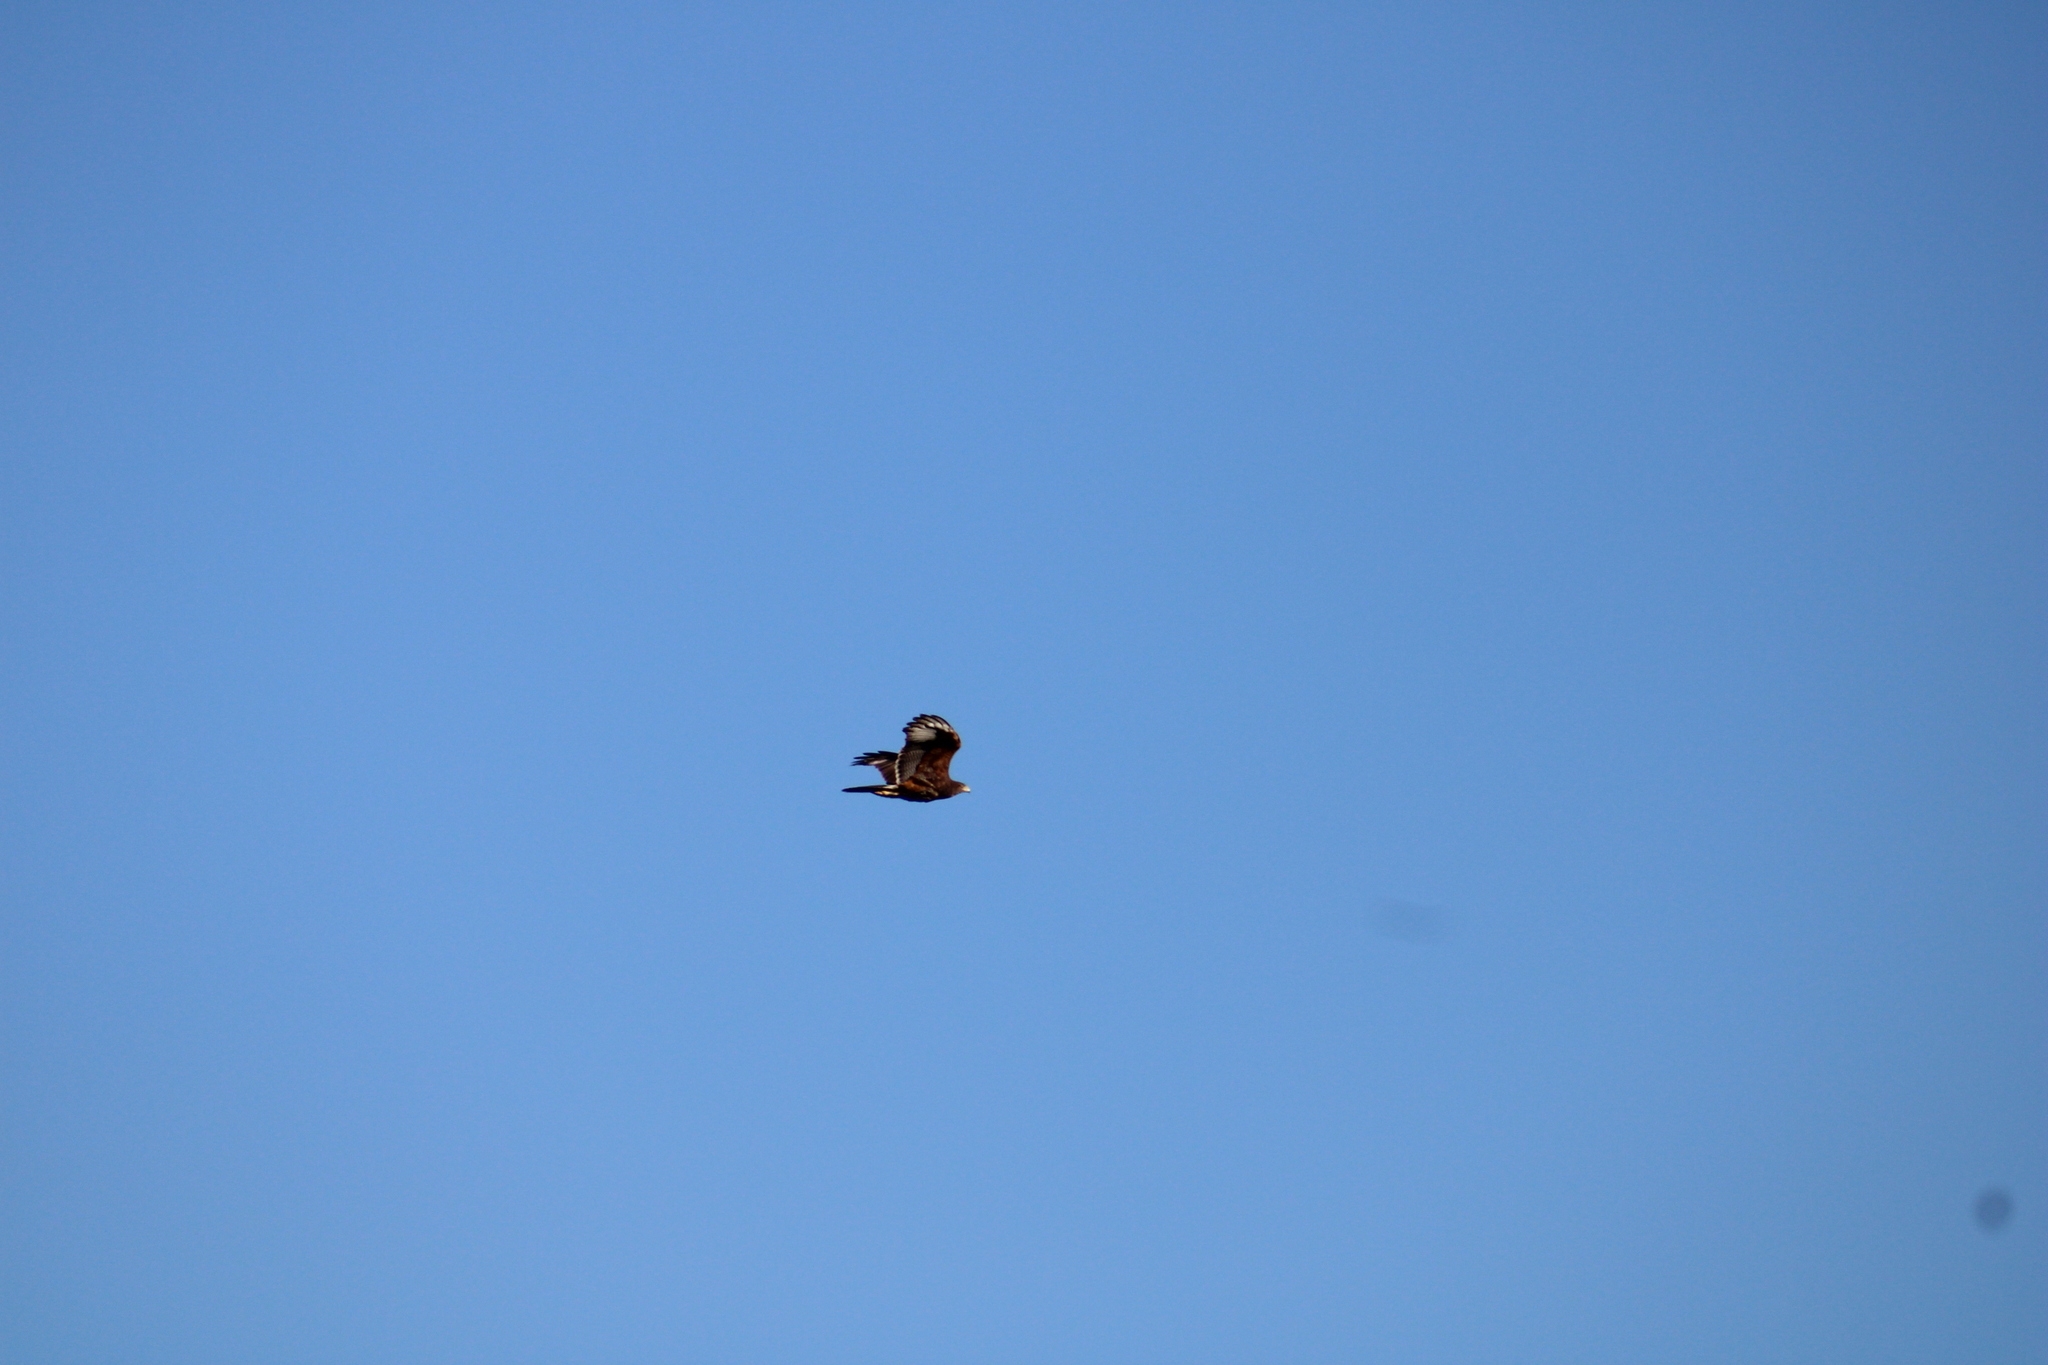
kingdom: Animalia
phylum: Chordata
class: Aves
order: Accipitriformes
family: Accipitridae
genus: Parabuteo
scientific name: Parabuteo unicinctus
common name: Harris's hawk
